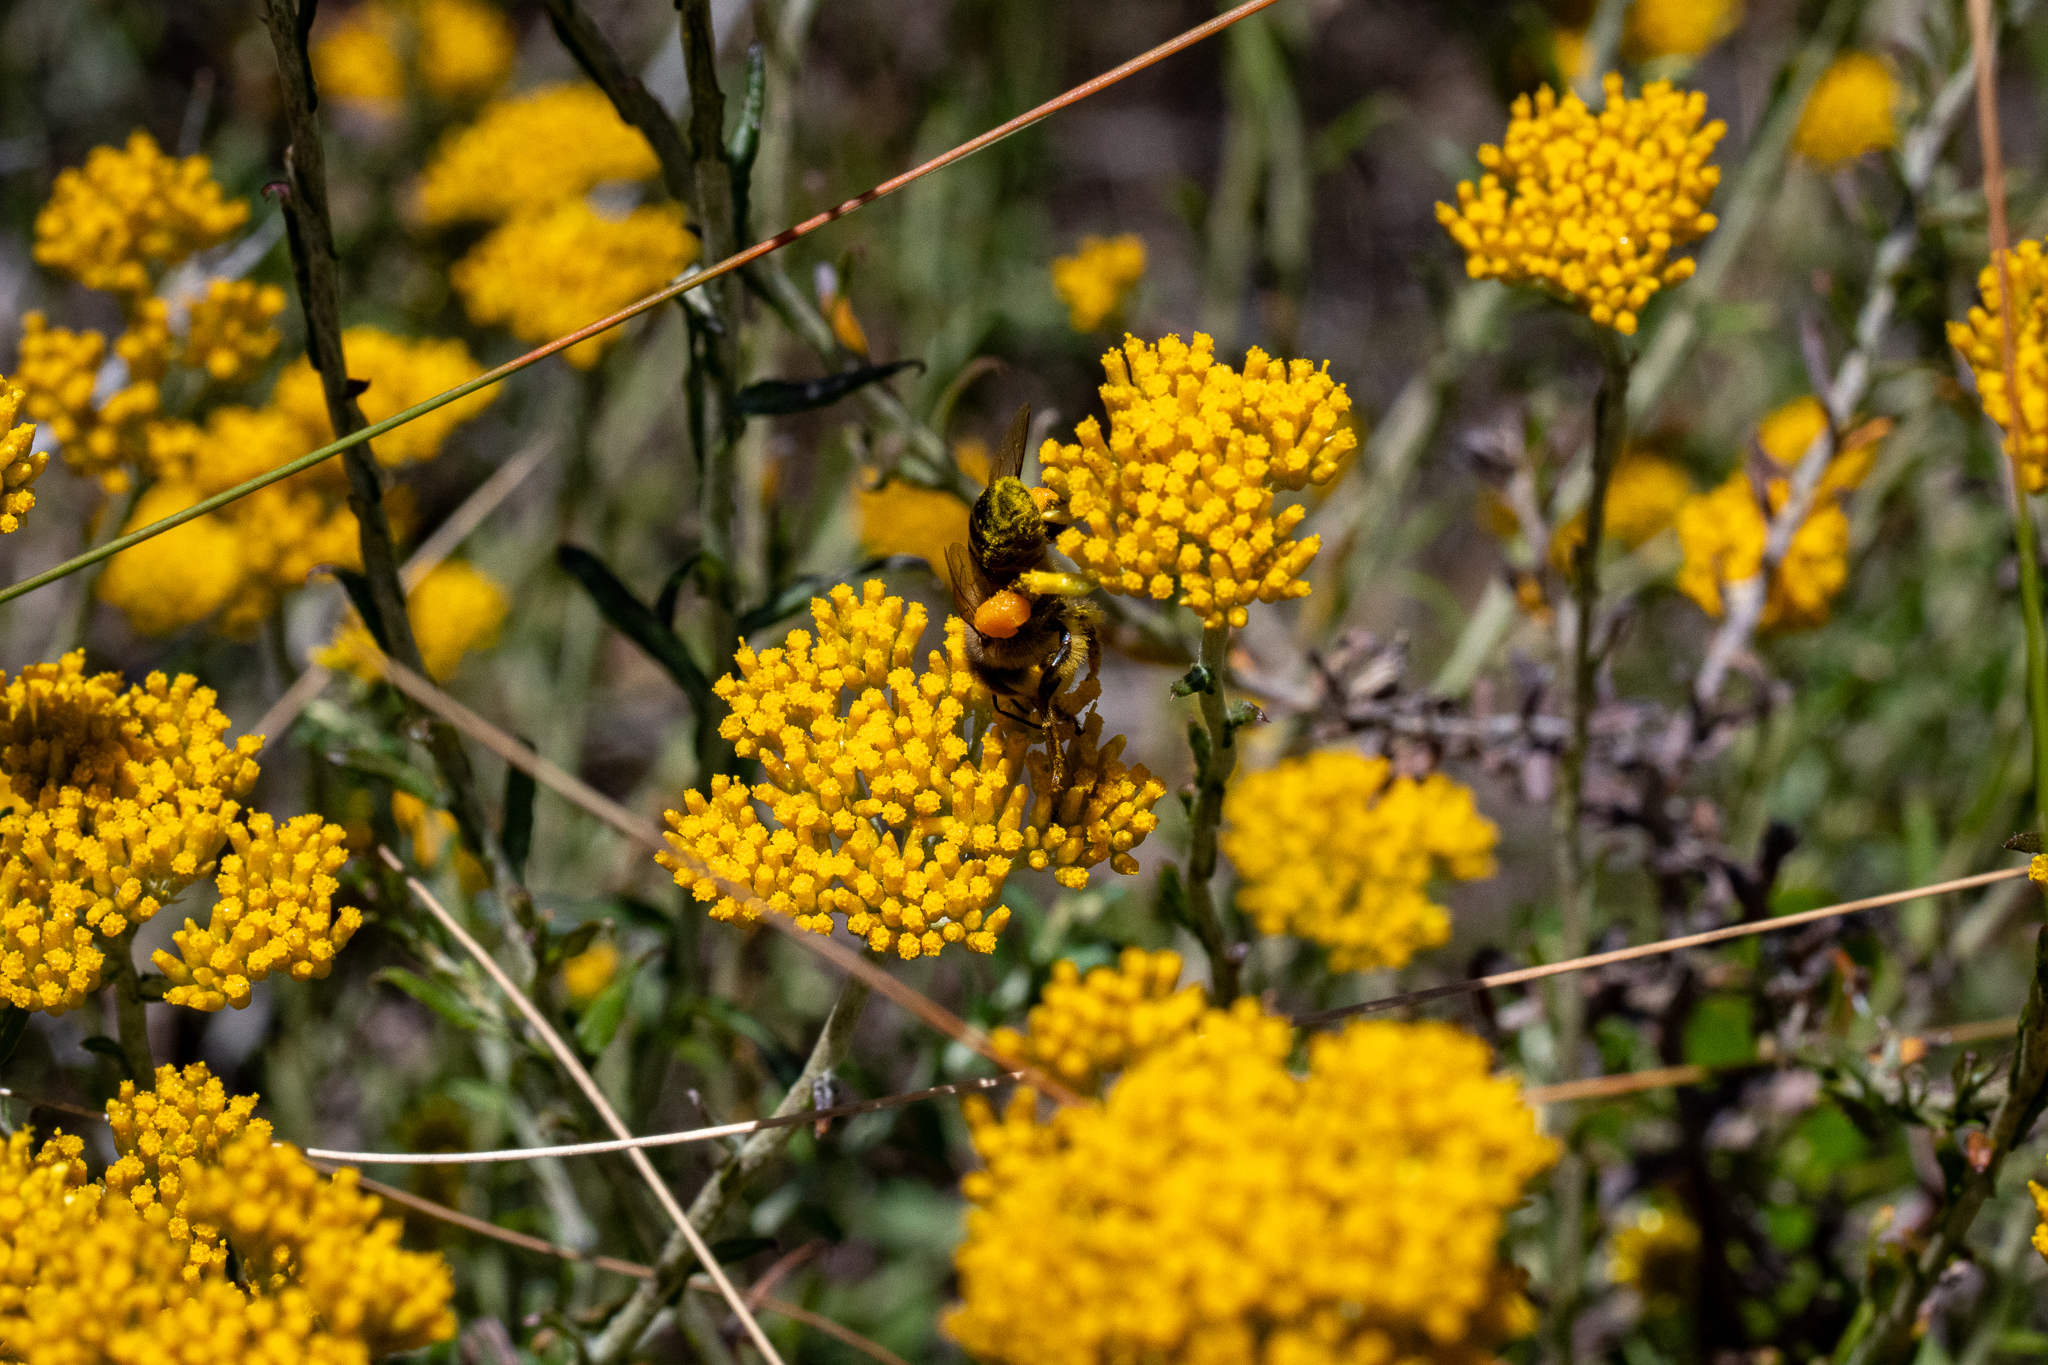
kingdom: Plantae
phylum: Tracheophyta
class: Magnoliopsida
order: Asterales
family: Asteraceae
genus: Helichrysum
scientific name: Helichrysum cymosum
